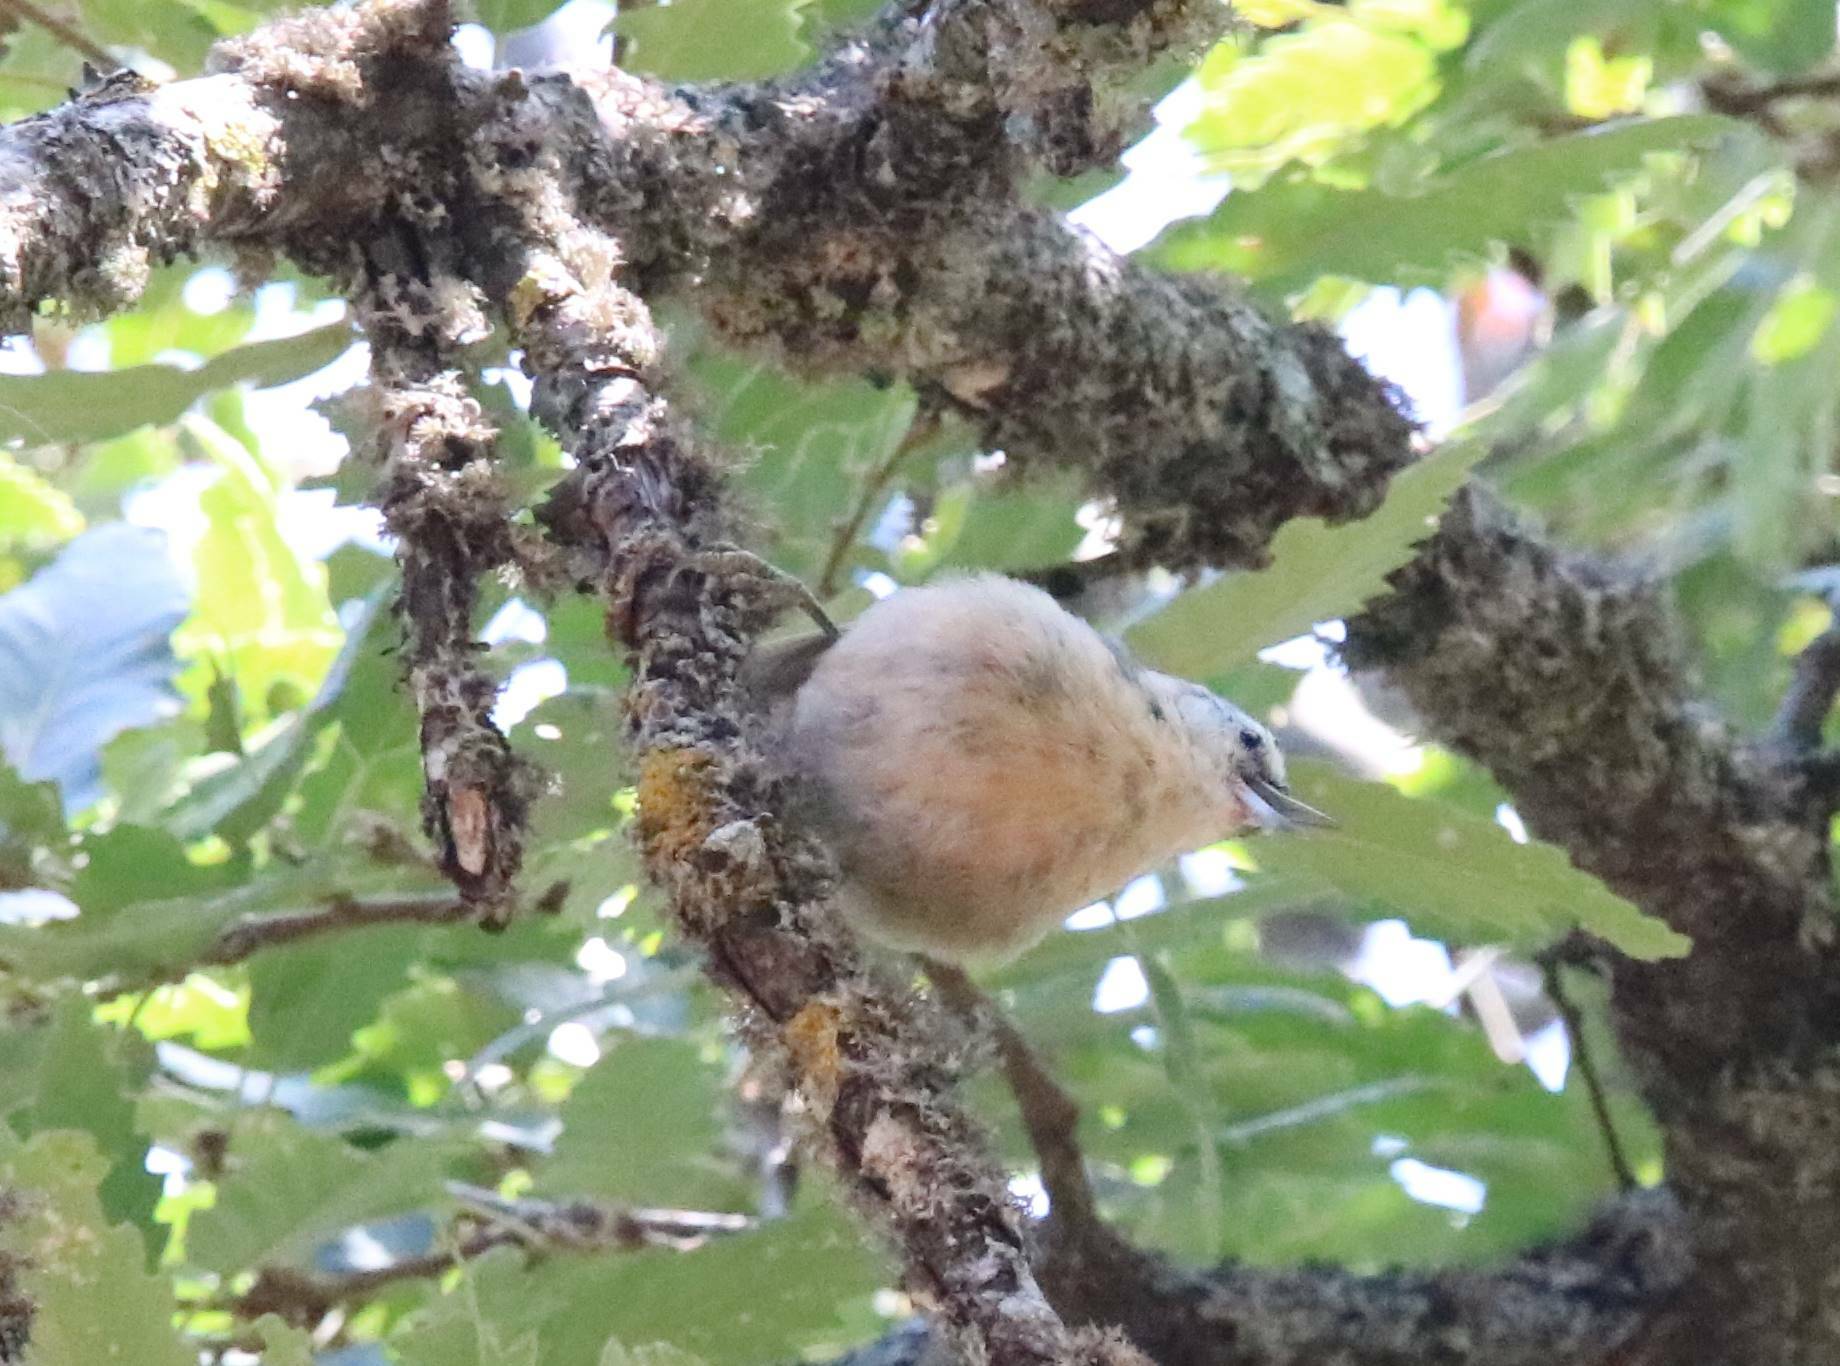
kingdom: Animalia
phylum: Chordata
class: Aves
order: Passeriformes
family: Sittidae
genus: Sitta
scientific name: Sitta ledanti
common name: Algerian nuthatch
